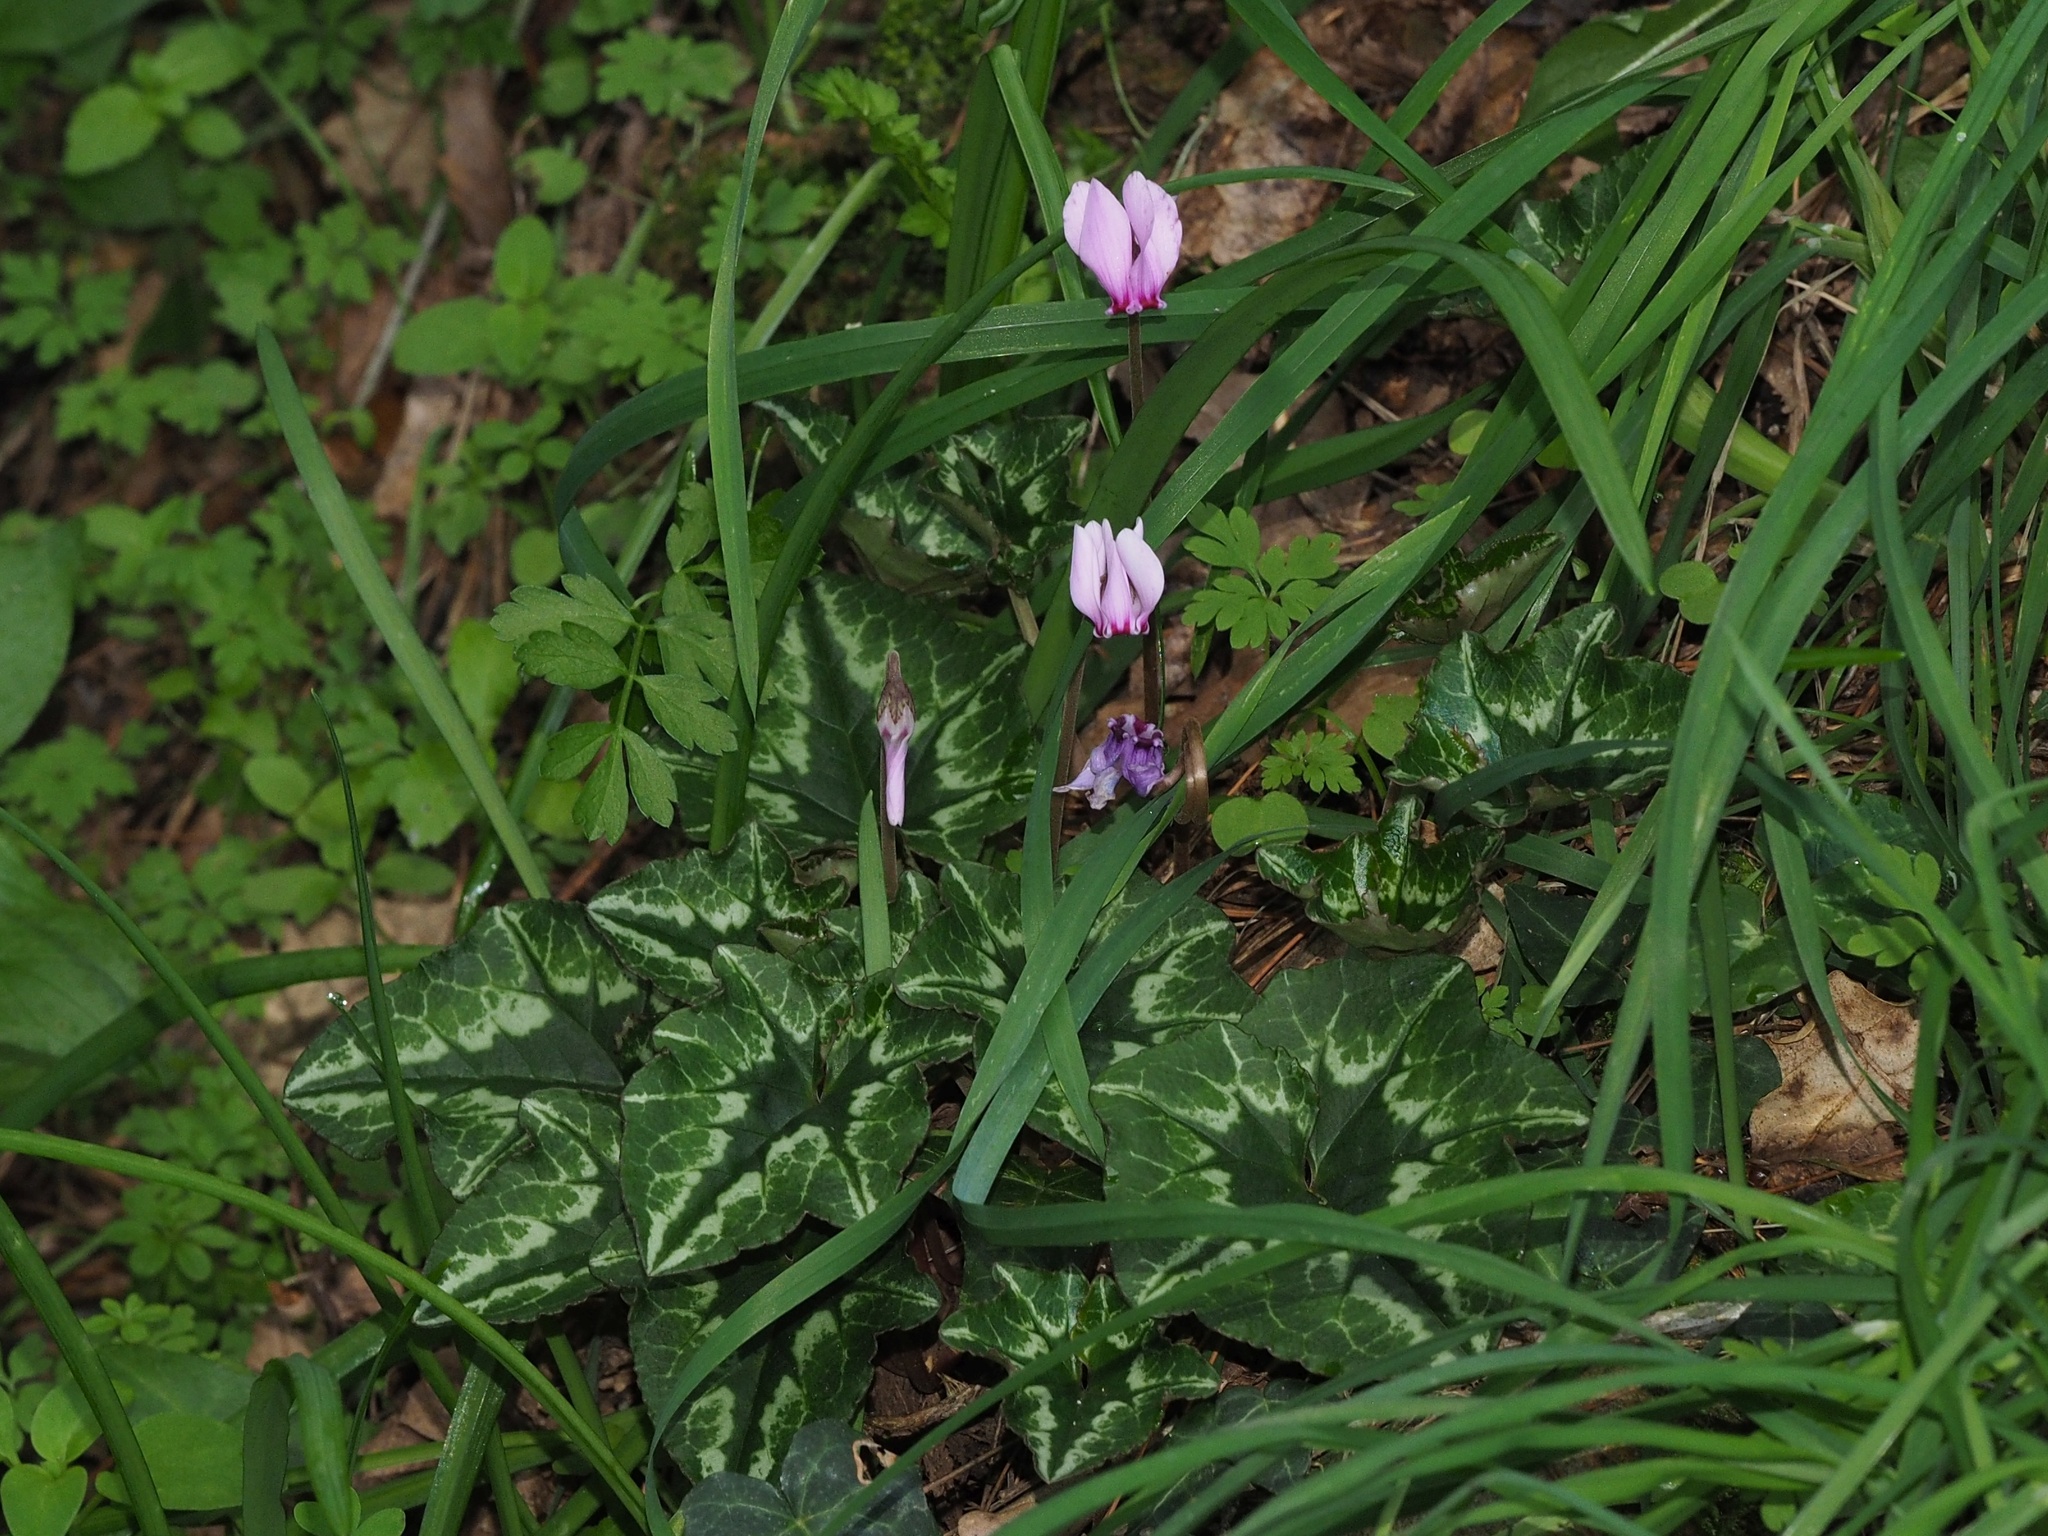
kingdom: Plantae
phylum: Tracheophyta
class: Magnoliopsida
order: Ericales
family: Primulaceae
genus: Cyclamen
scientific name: Cyclamen hederifolium
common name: Sowbread
